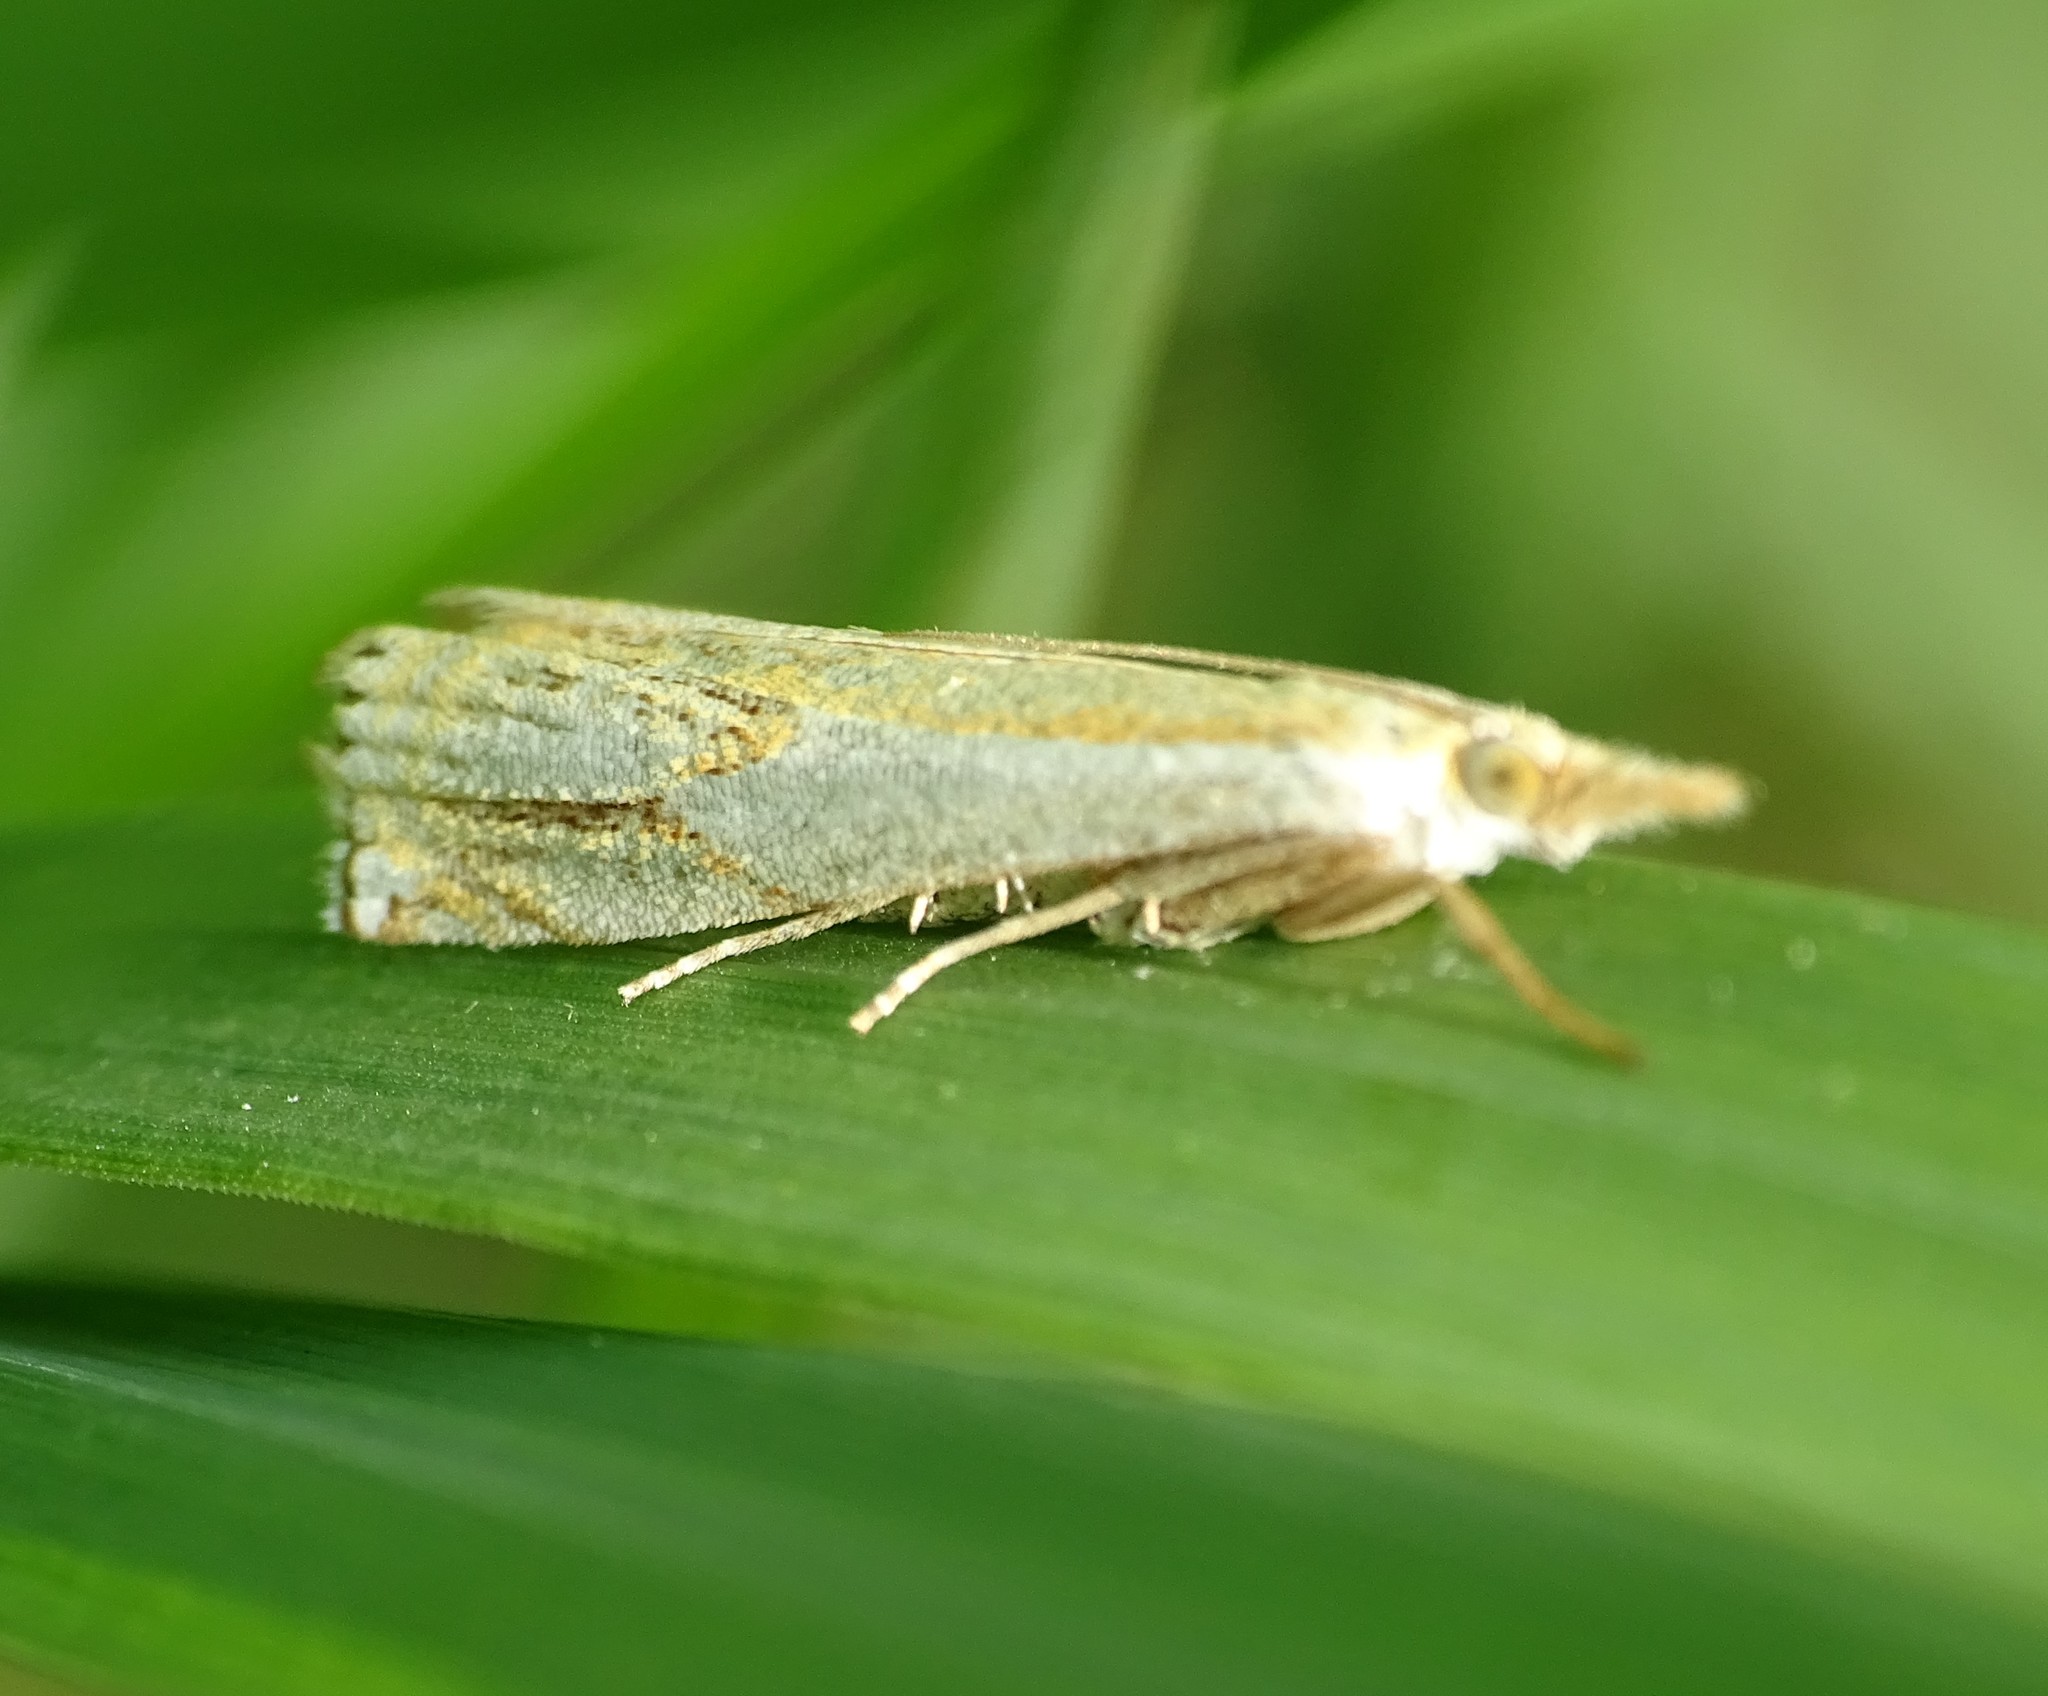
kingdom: Animalia
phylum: Arthropoda
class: Insecta
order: Lepidoptera
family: Crambidae
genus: Crambus
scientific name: Crambus agitatellus
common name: Double-banded grass-veneer
